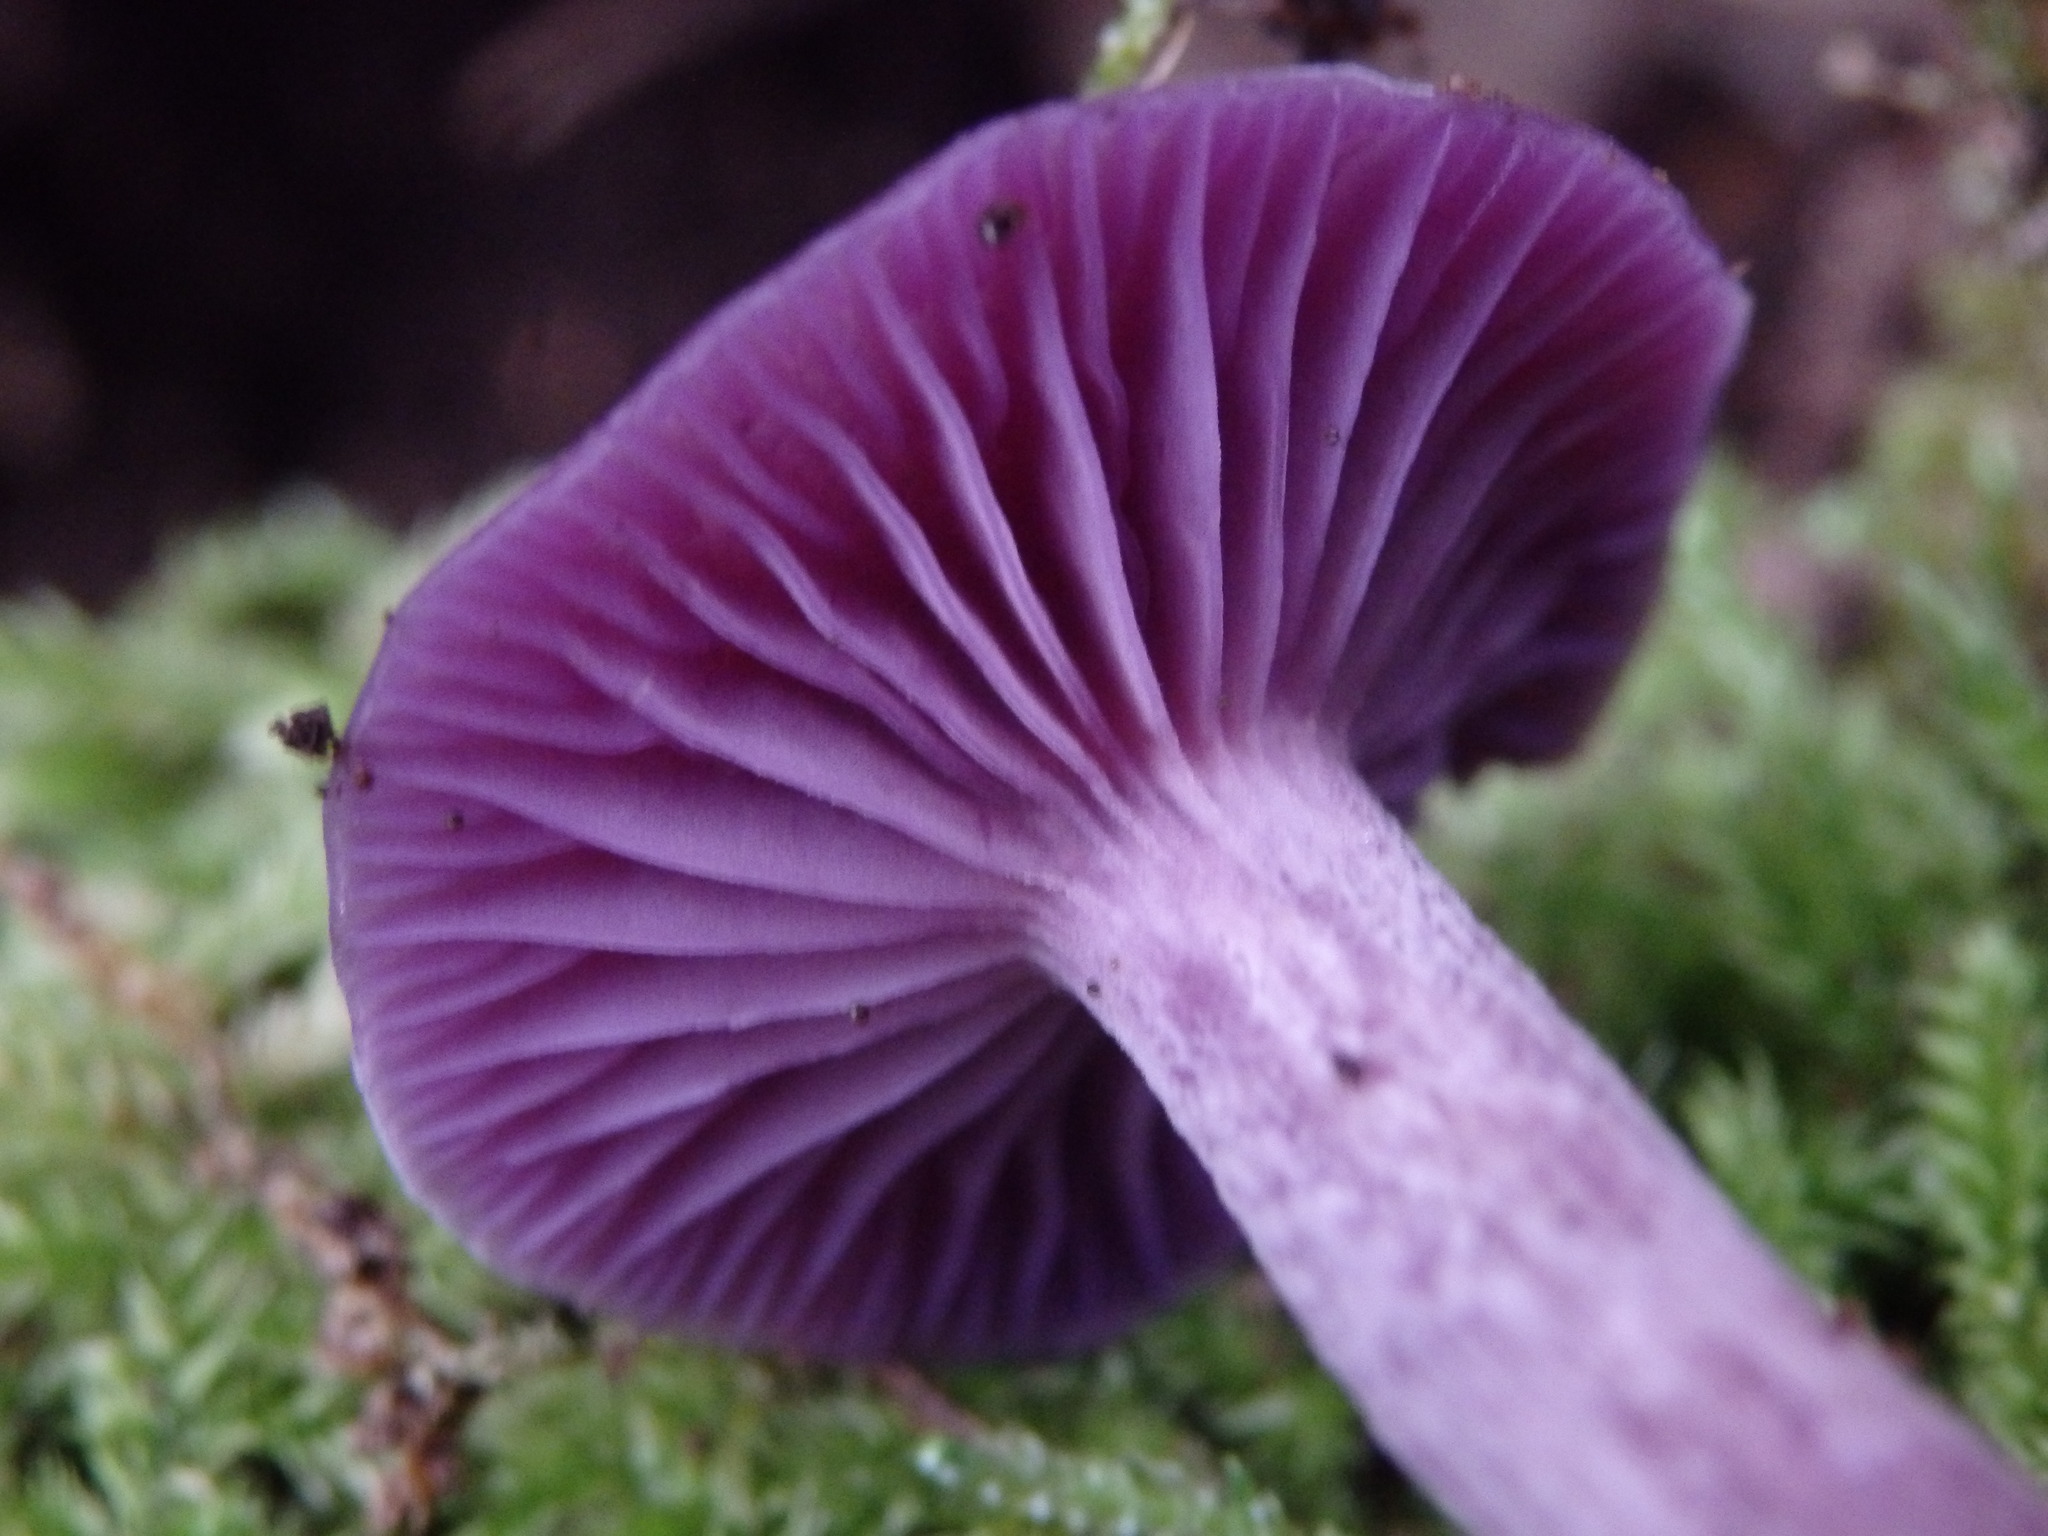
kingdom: Fungi
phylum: Basidiomycota
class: Agaricomycetes
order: Agaricales
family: Hydnangiaceae
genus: Laccaria
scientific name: Laccaria amethystina
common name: Amethyst deceiver
